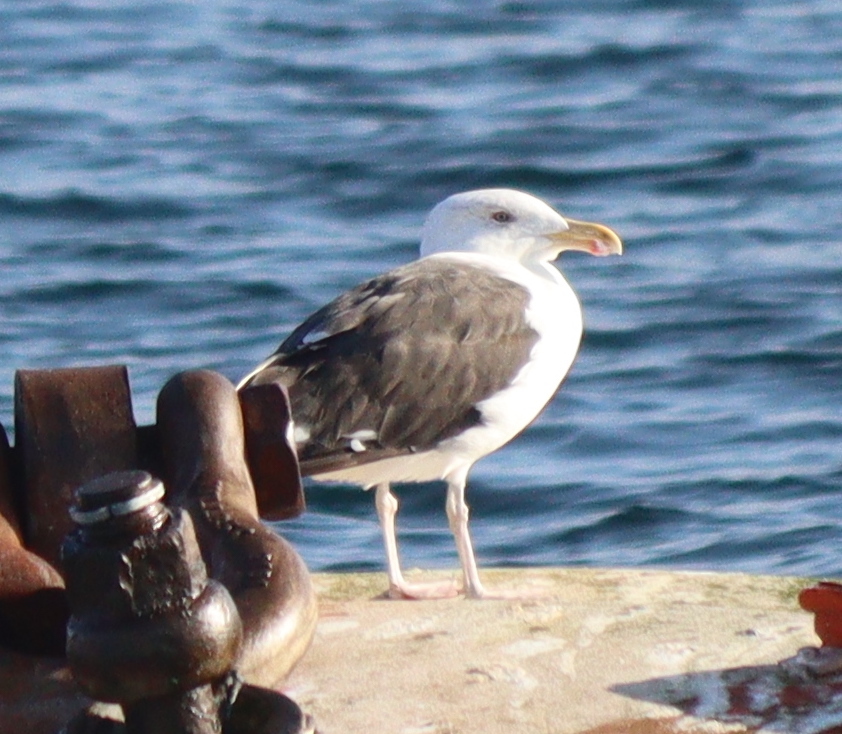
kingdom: Animalia
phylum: Chordata
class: Aves
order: Charadriiformes
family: Laridae
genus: Larus
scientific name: Larus marinus
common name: Great black-backed gull
